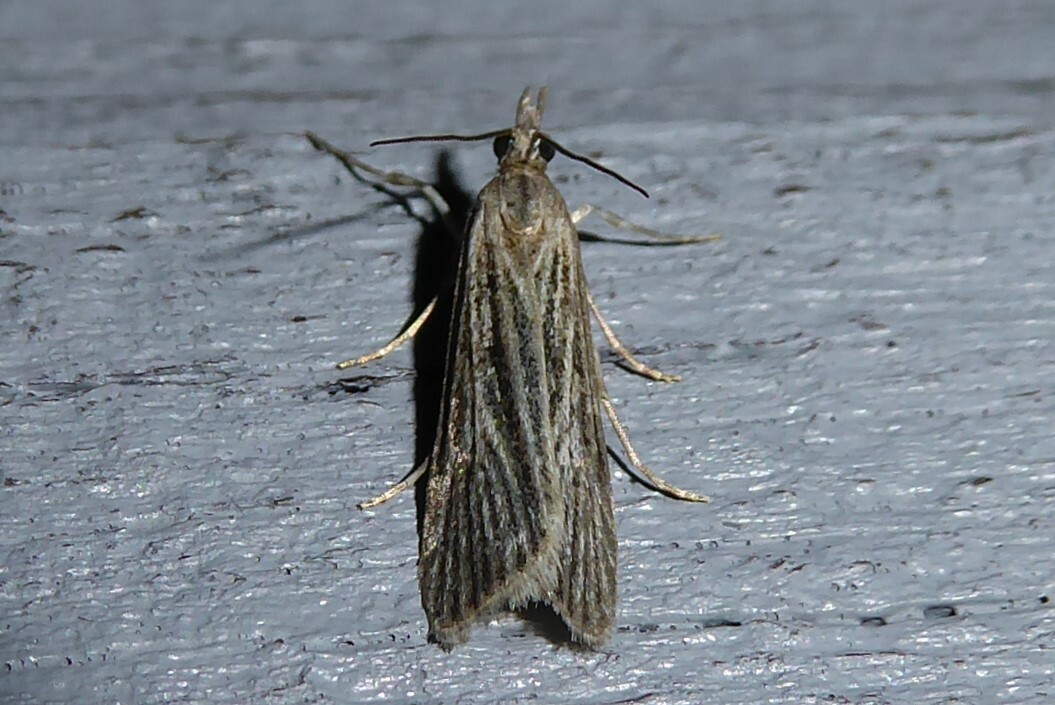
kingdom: Animalia
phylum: Arthropoda
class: Insecta
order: Lepidoptera
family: Crambidae
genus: Eudonia
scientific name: Eudonia atmogramma
